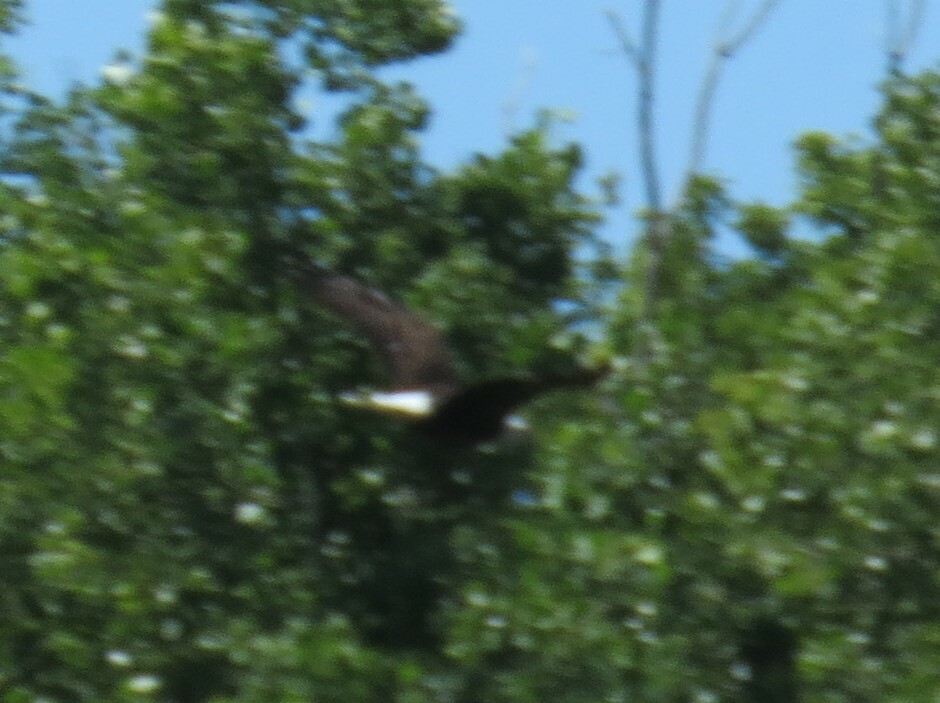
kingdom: Animalia
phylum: Chordata
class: Aves
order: Accipitriformes
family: Accipitridae
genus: Haliaeetus
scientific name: Haliaeetus leucocephalus
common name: Bald eagle
